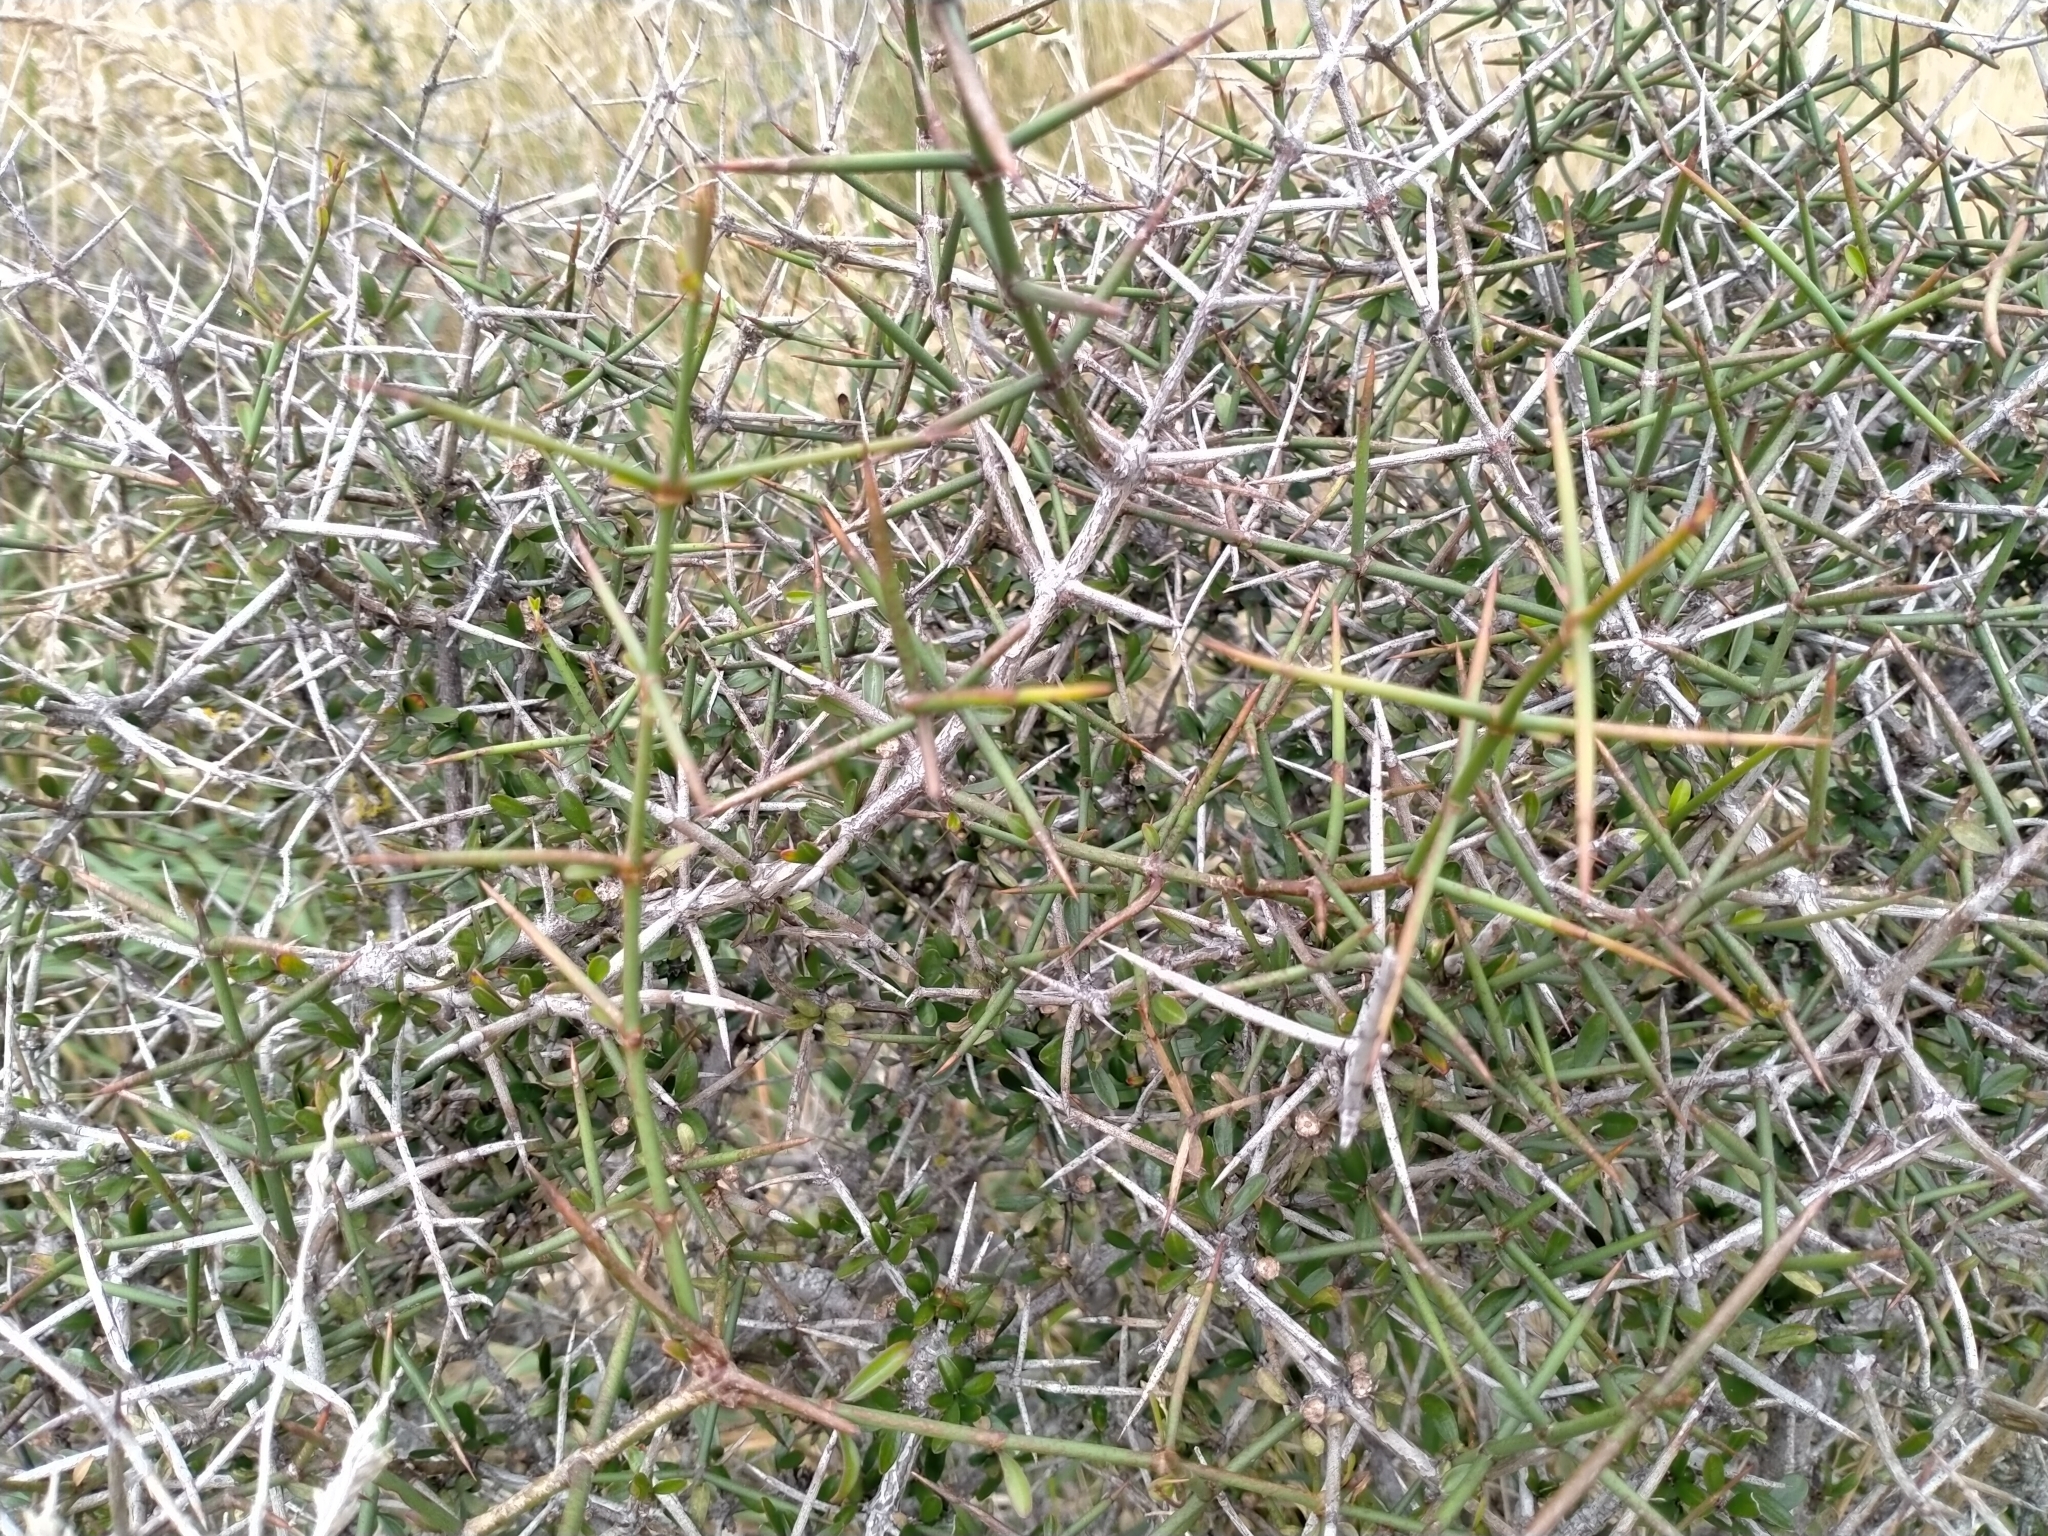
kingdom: Plantae
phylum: Tracheophyta
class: Magnoliopsida
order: Rosales
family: Rhamnaceae
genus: Discaria
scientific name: Discaria toumatou
